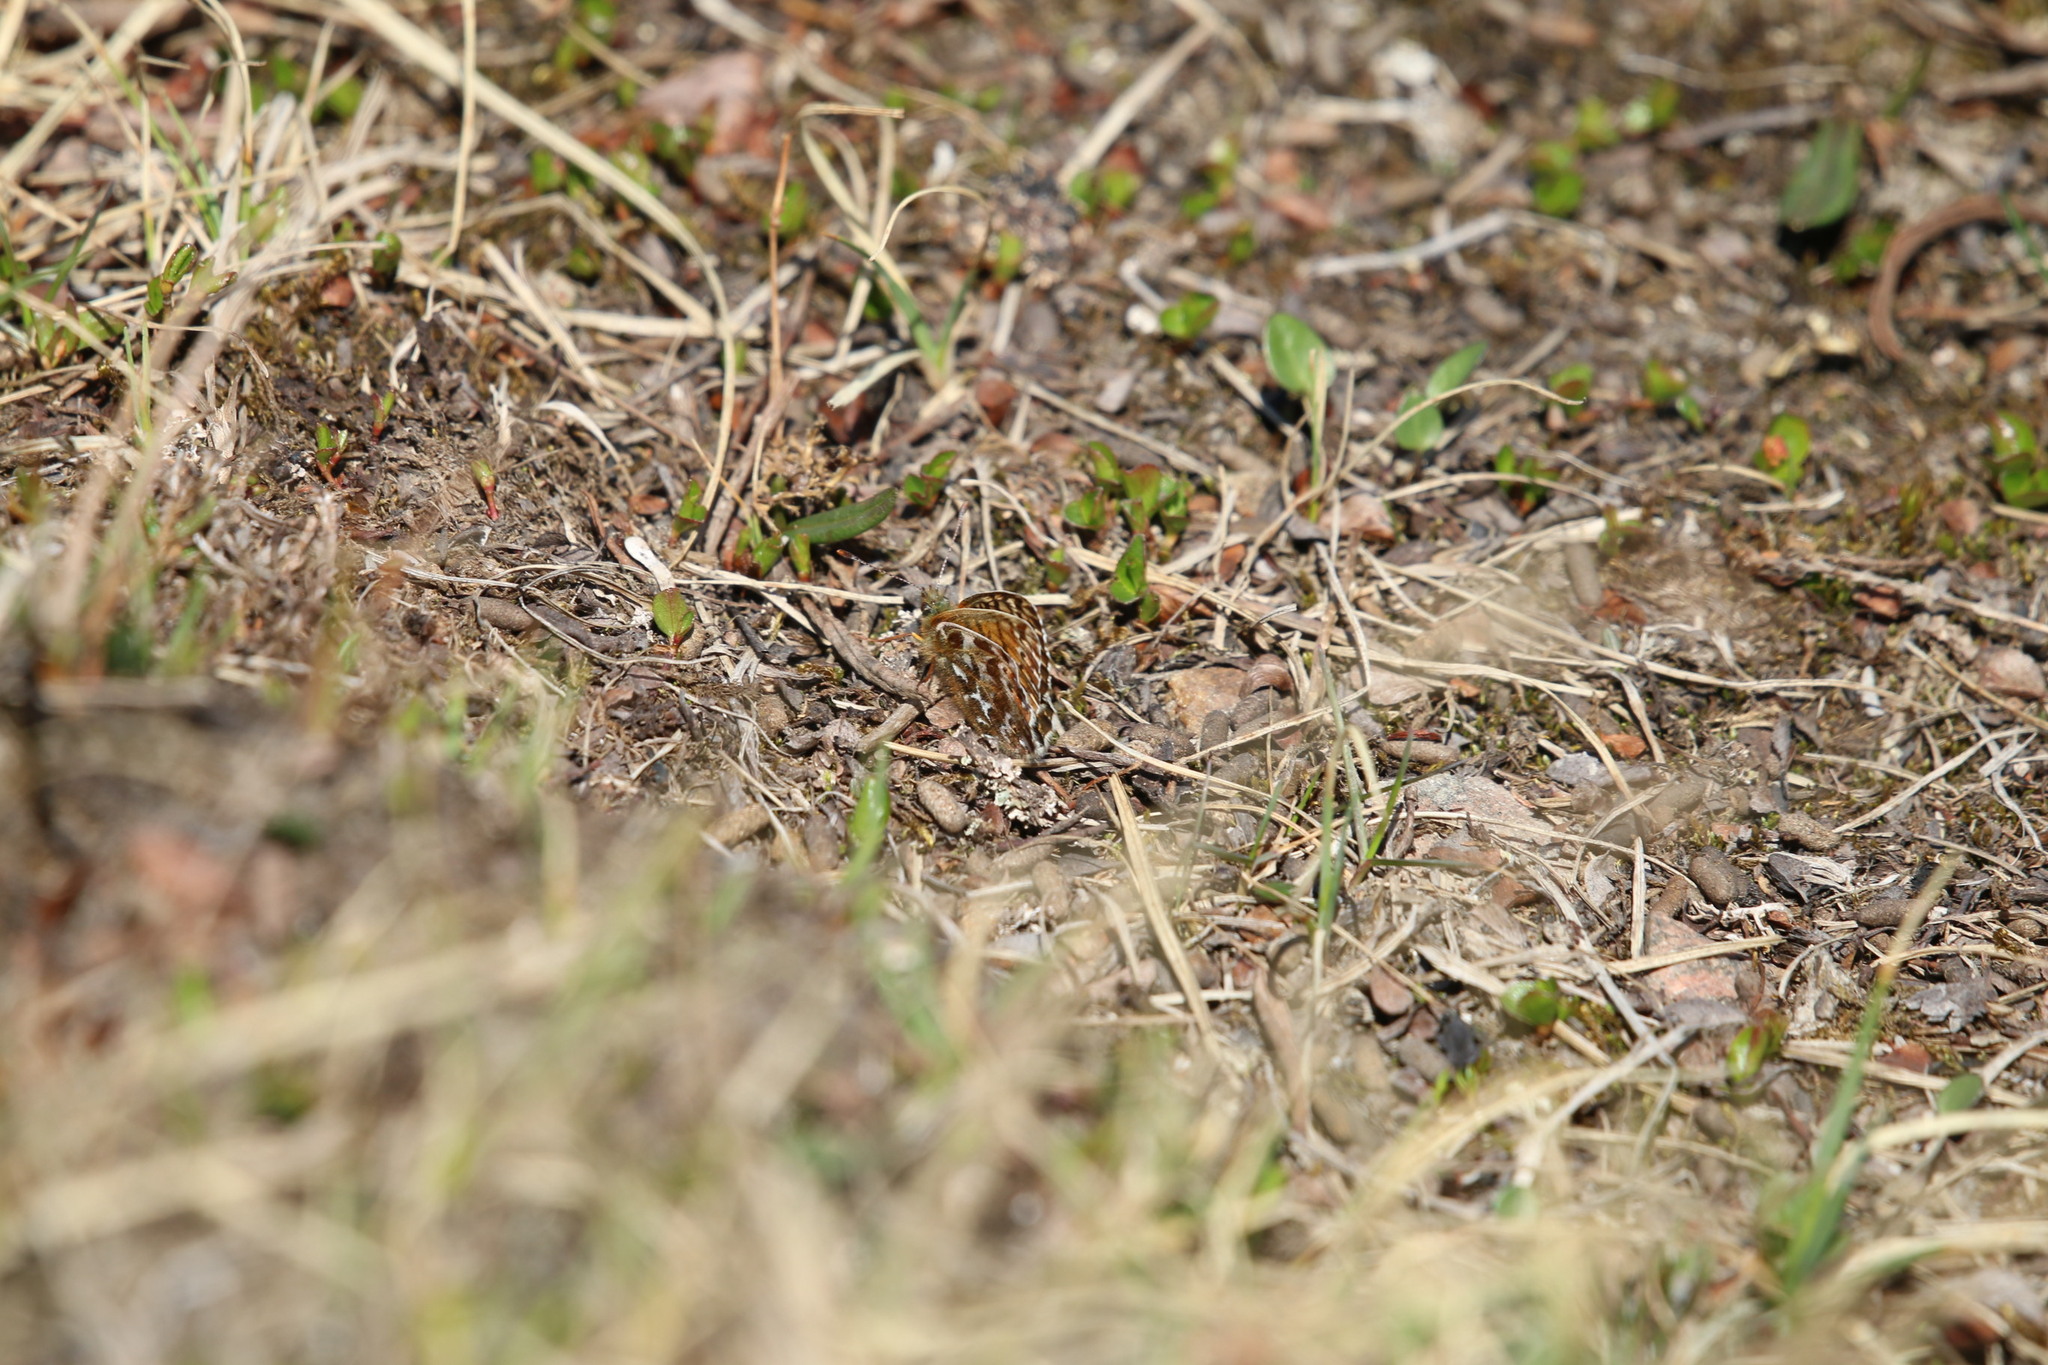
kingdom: Animalia
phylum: Arthropoda
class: Insecta
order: Lepidoptera
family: Nymphalidae
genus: Clossiana
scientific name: Clossiana polaris
